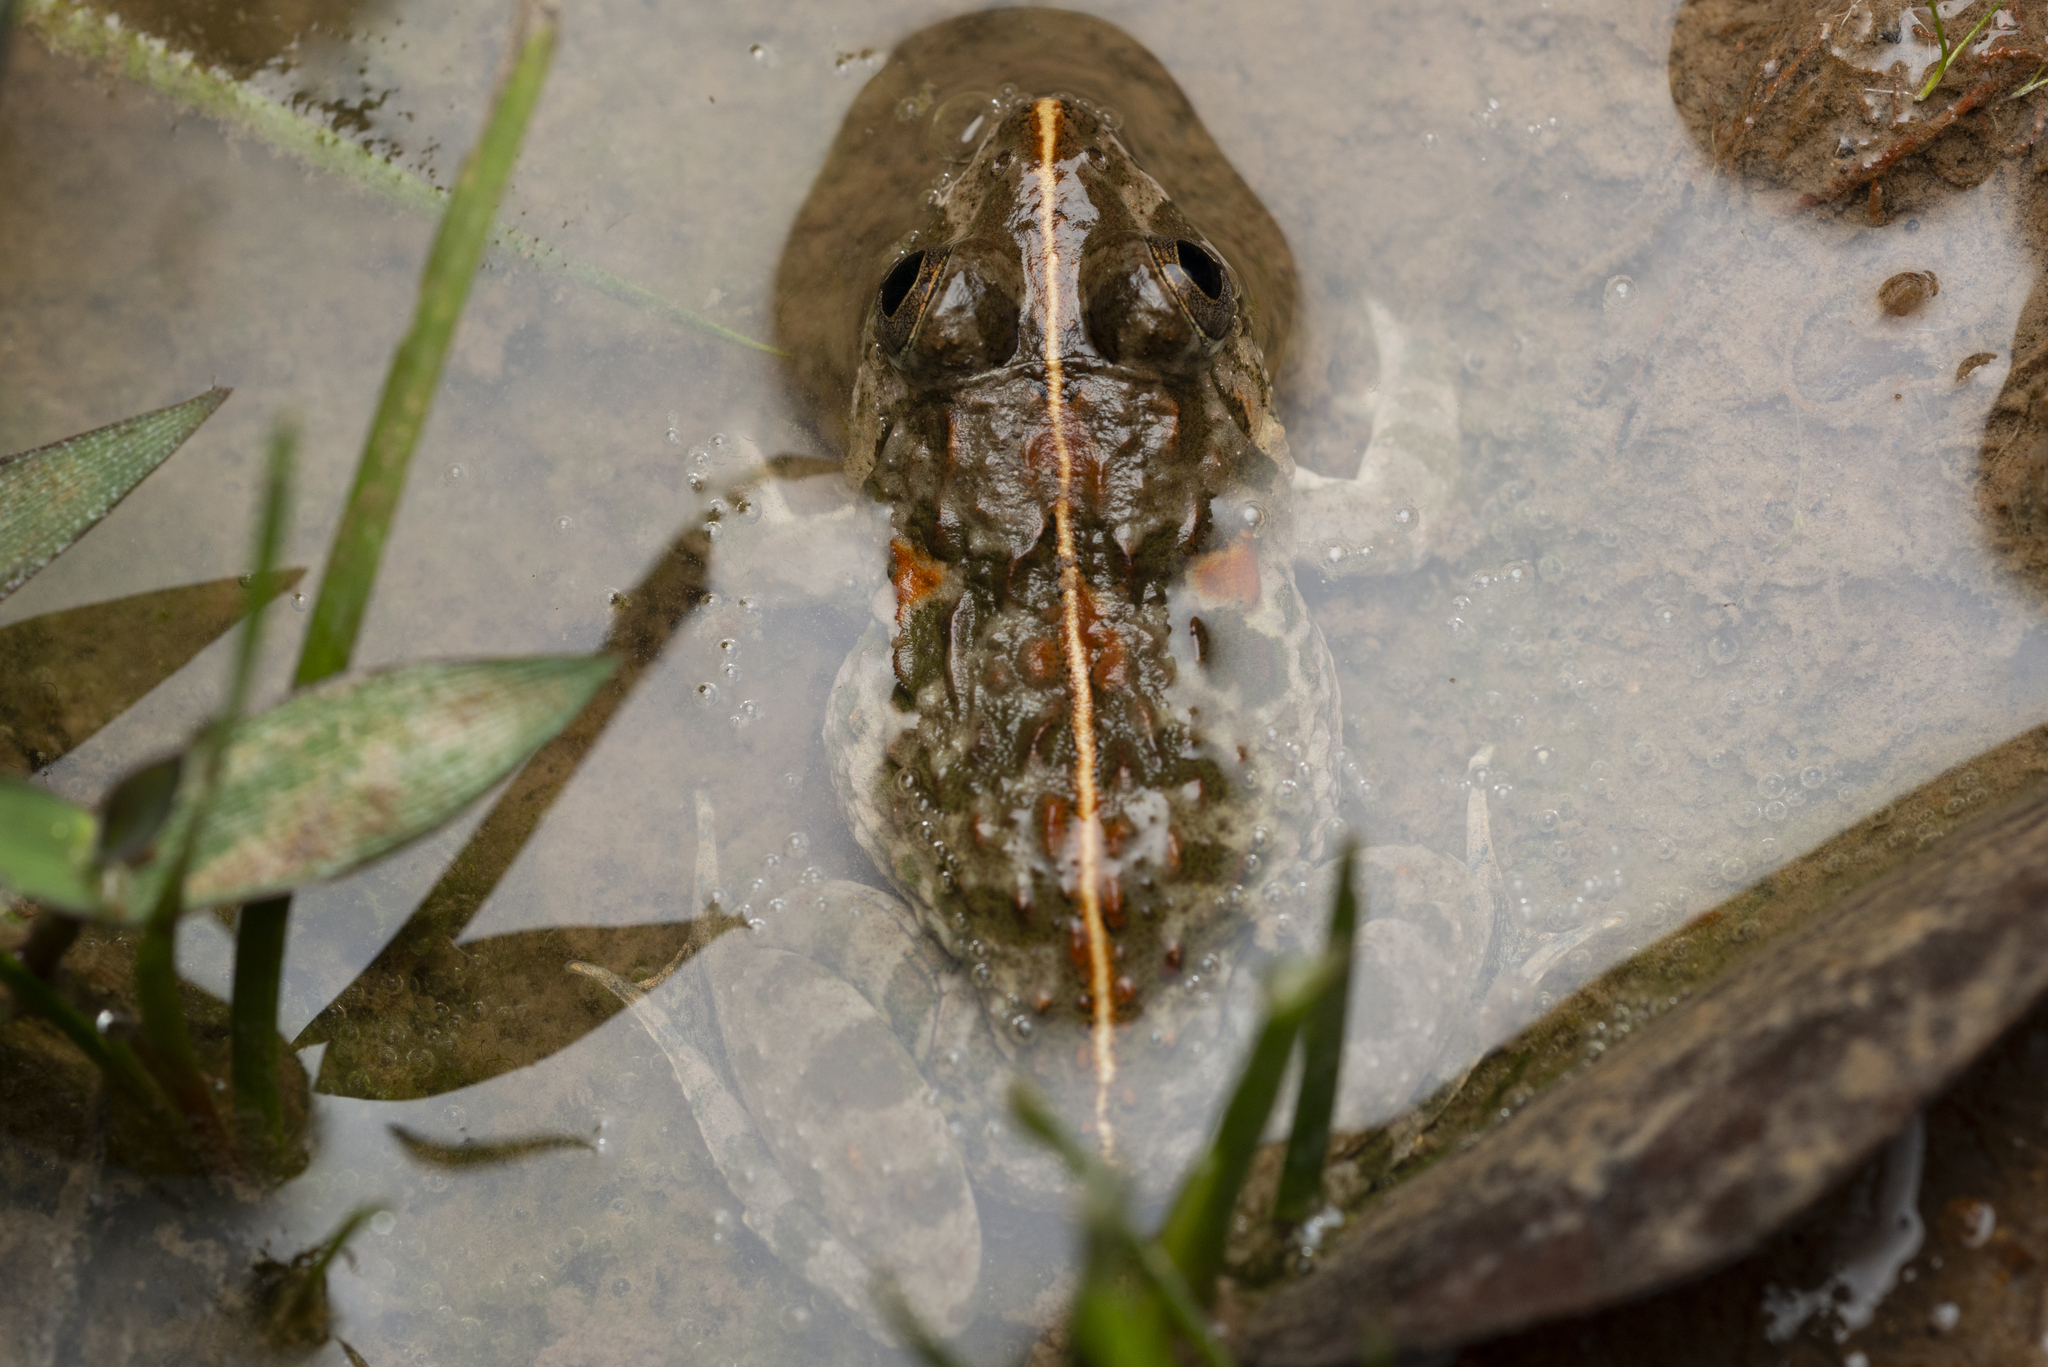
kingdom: Animalia
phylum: Chordata
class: Amphibia
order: Anura
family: Dicroglossidae
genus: Fejervarya
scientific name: Fejervarya multistriata
